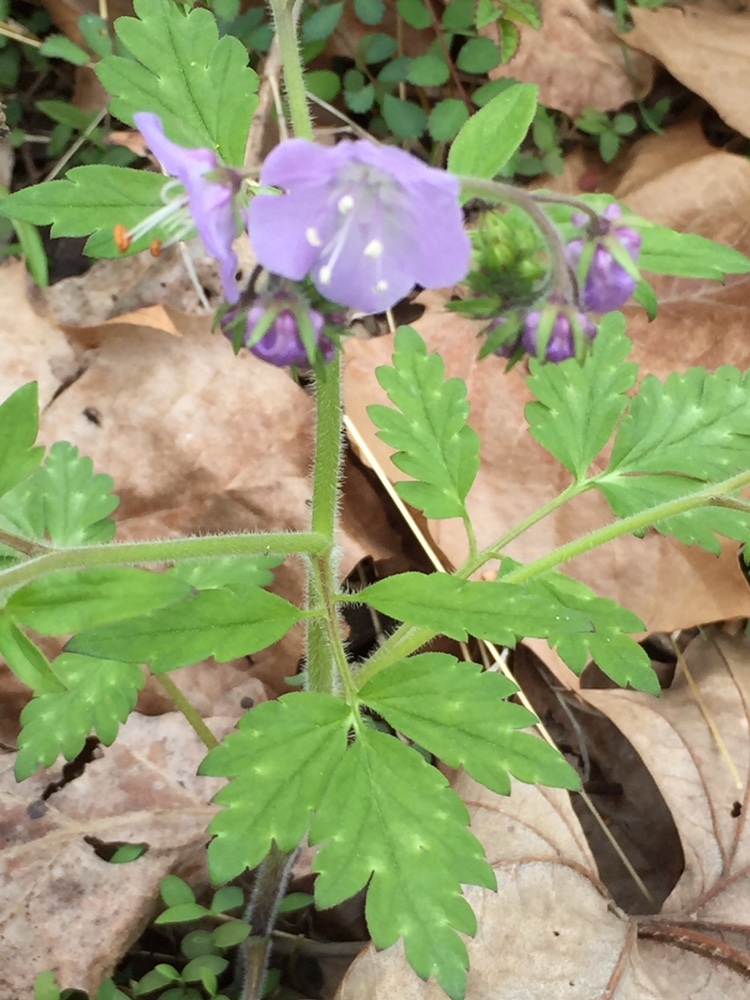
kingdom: Plantae
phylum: Tracheophyta
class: Magnoliopsida
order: Boraginales
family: Hydrophyllaceae
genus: Phacelia
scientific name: Phacelia bipinnatifida
